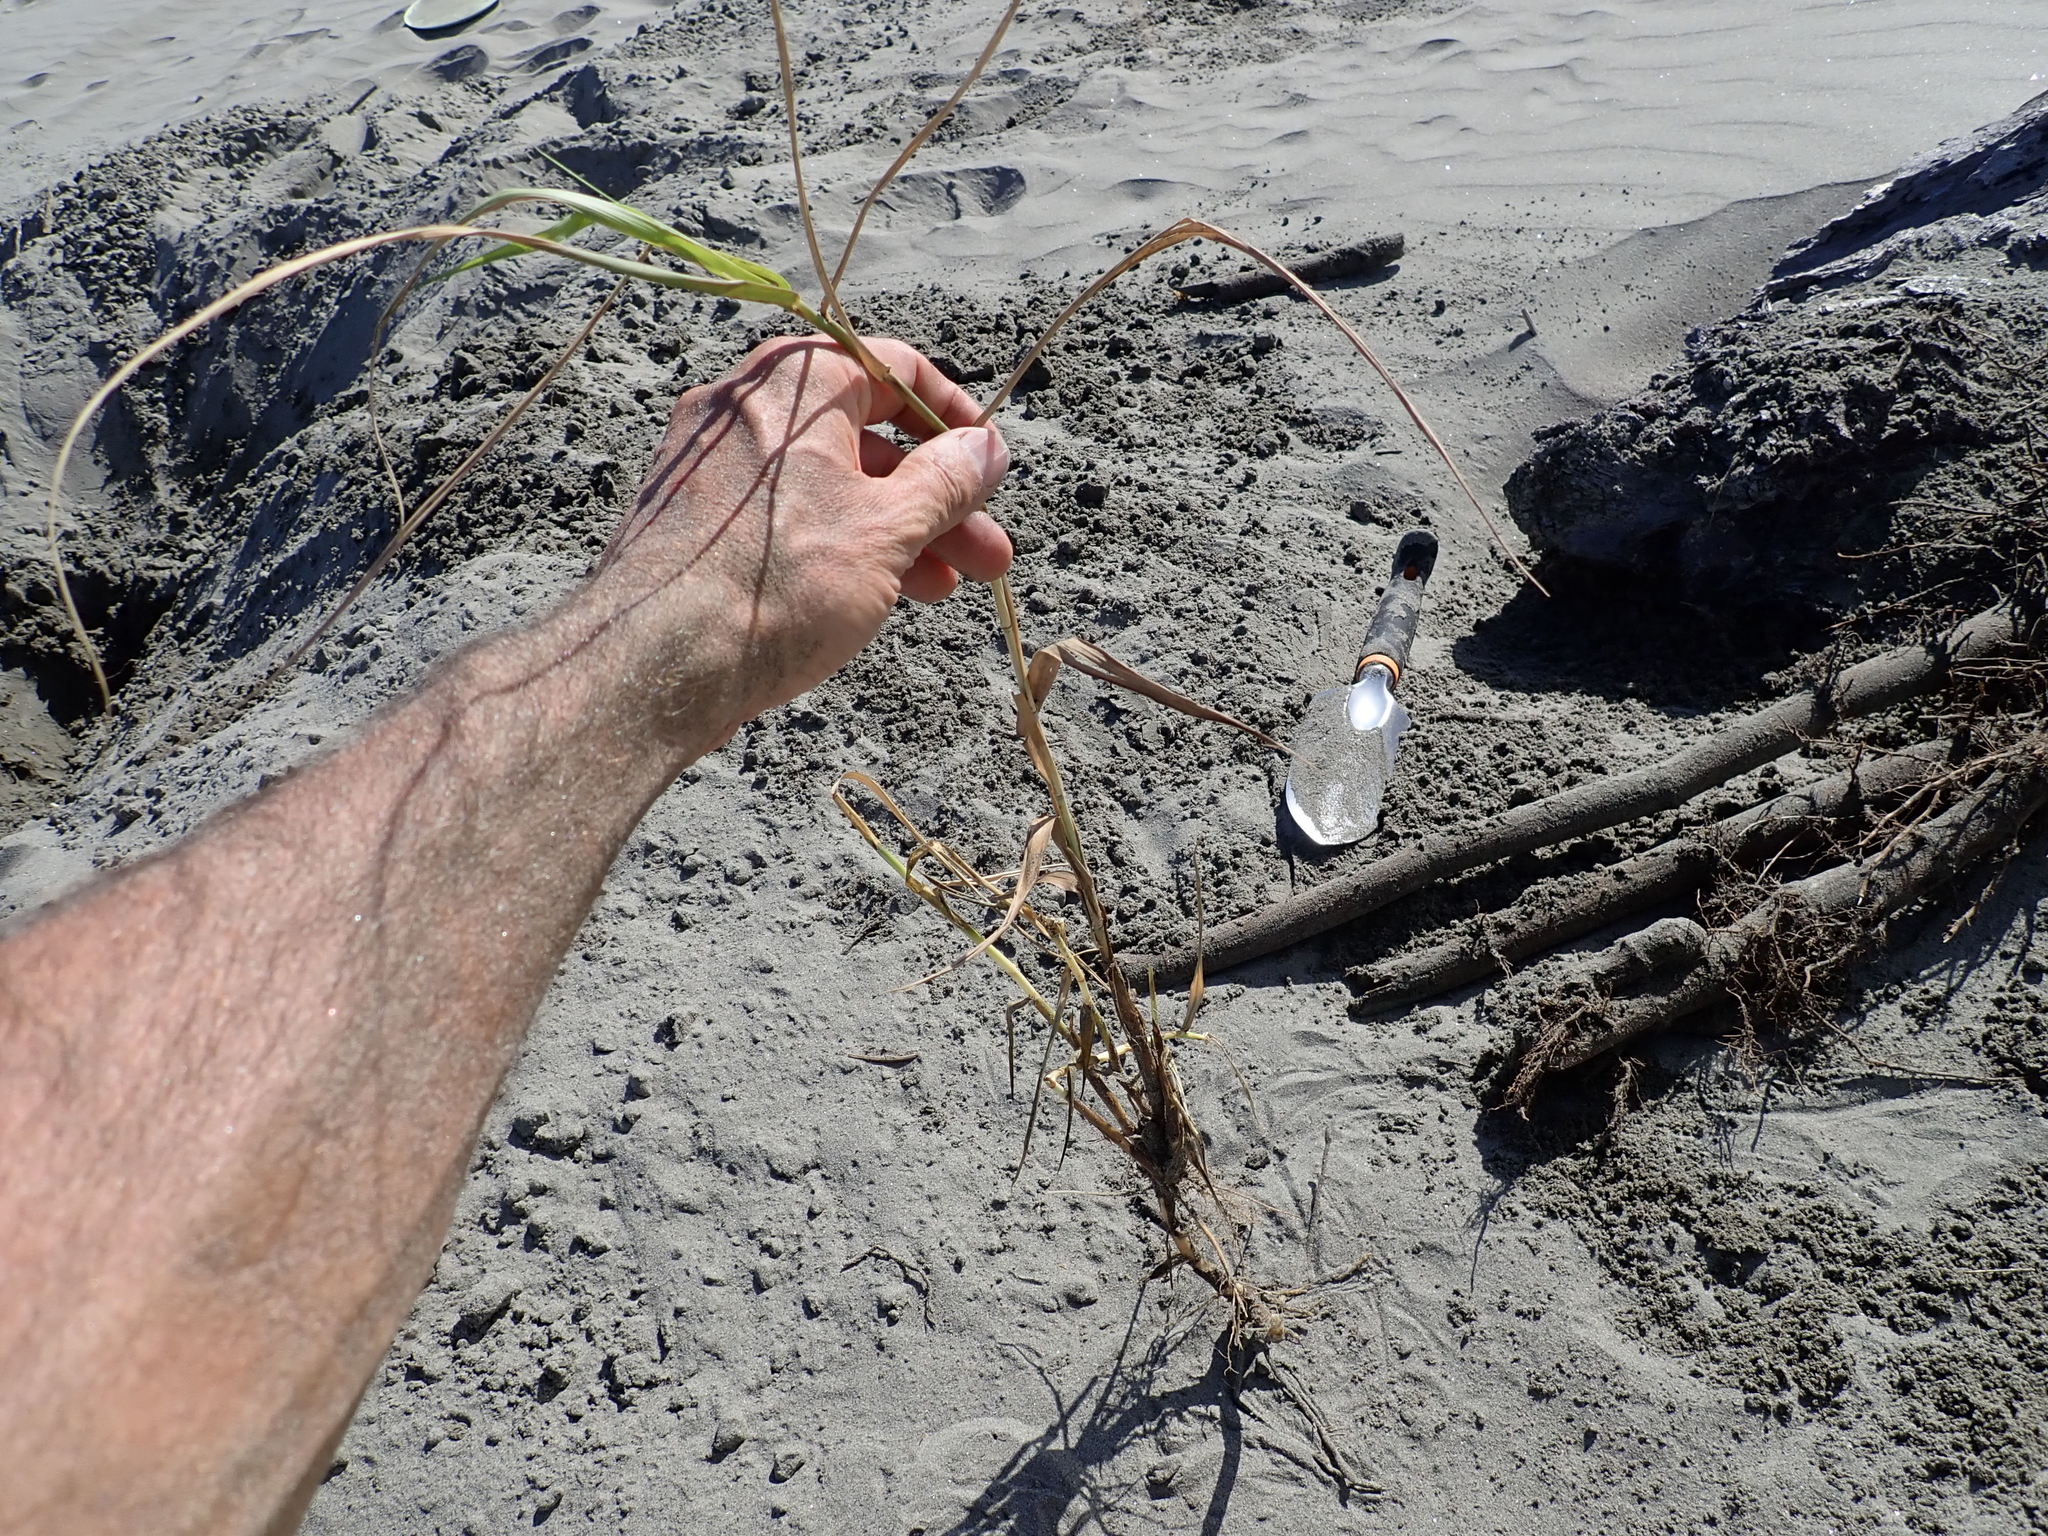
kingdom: Plantae
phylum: Tracheophyta
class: Liliopsida
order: Poales
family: Poaceae
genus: Phragmites
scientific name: Phragmites karka
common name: Tropical reed
